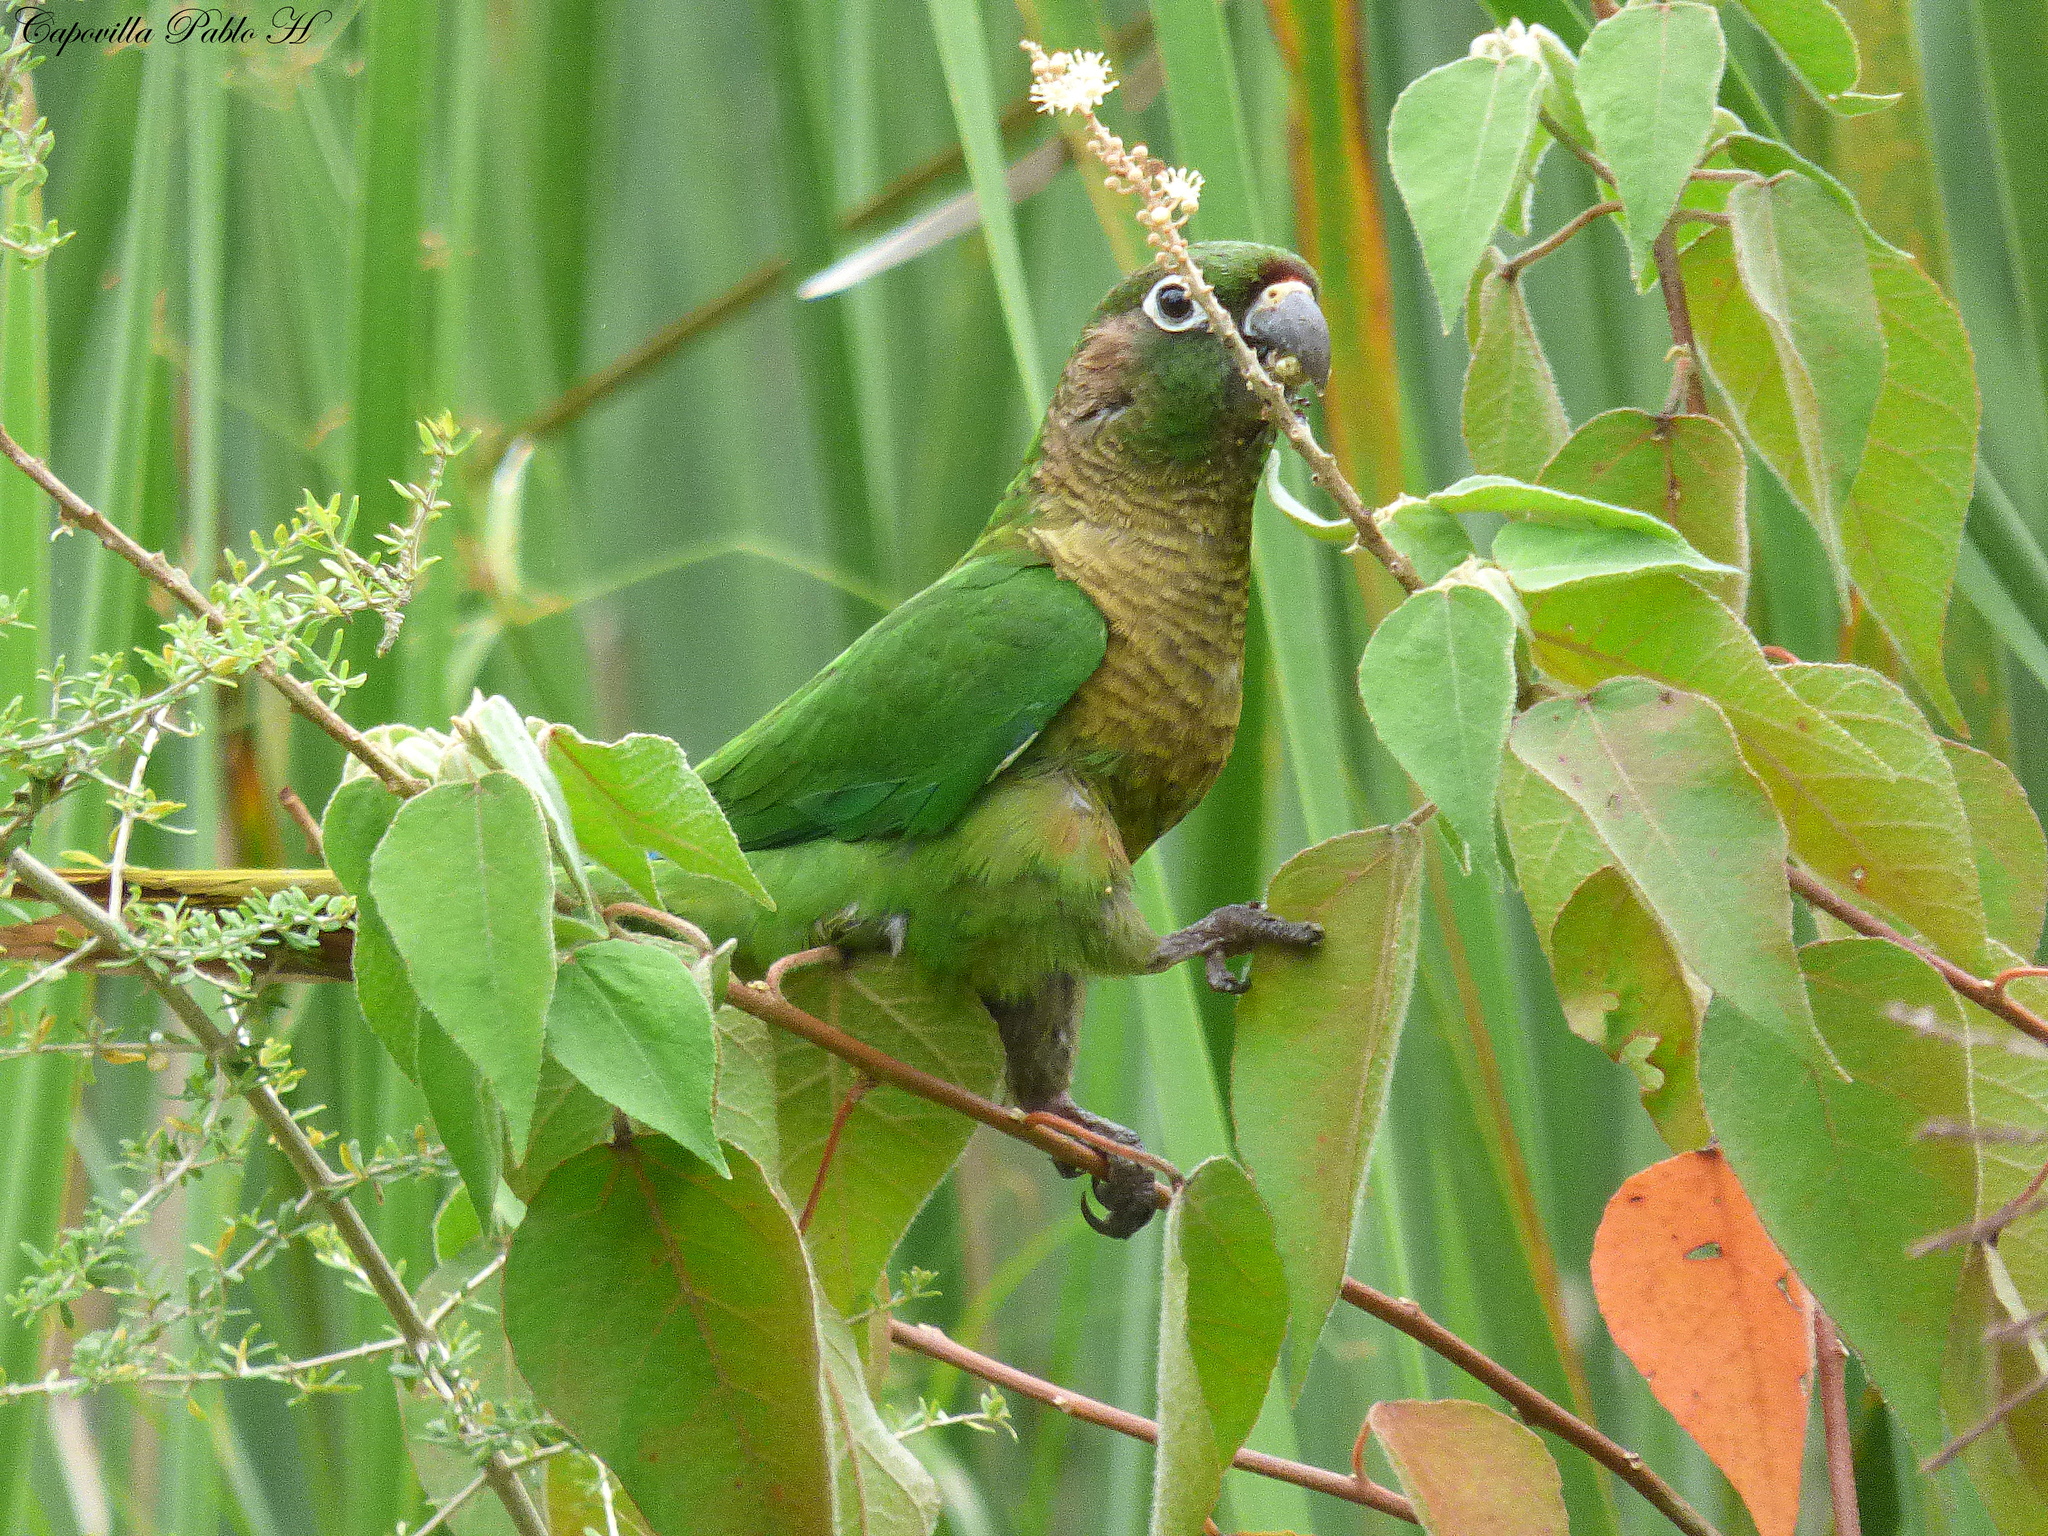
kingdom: Animalia
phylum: Chordata
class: Aves
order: Psittaciformes
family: Psittacidae
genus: Pyrrhura
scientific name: Pyrrhura frontalis
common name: Maroon-bellied parakeet
